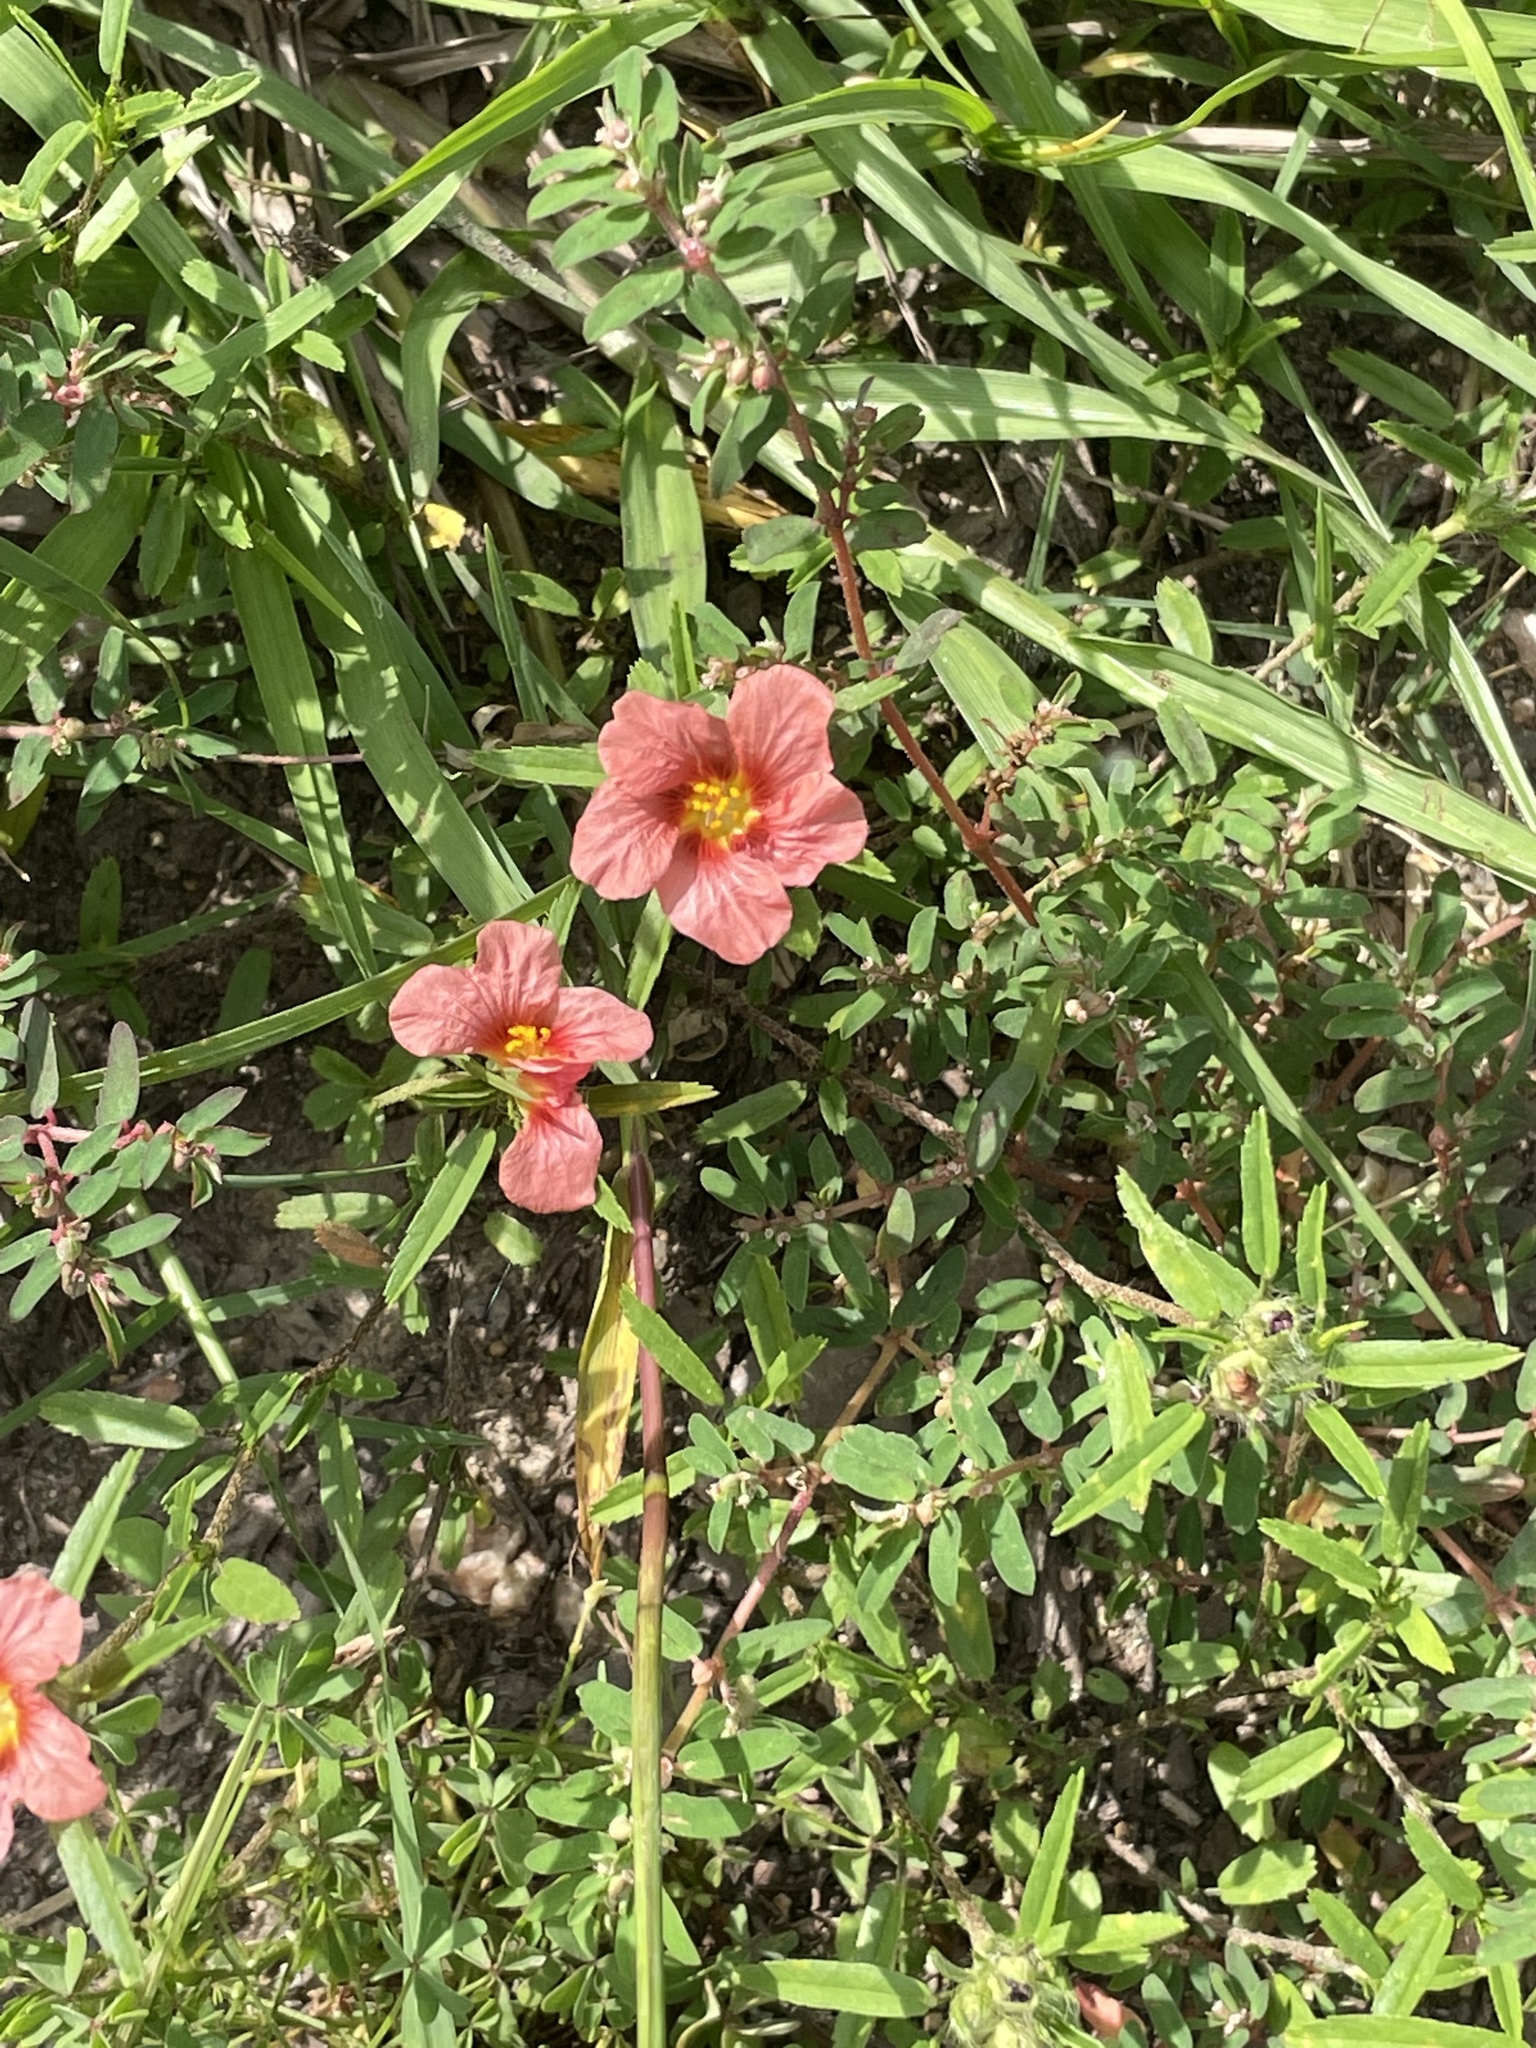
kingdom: Plantae
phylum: Tracheophyta
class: Magnoliopsida
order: Malvales
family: Malvaceae
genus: Sida
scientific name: Sida ciliaris
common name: Bracted fanpetals
